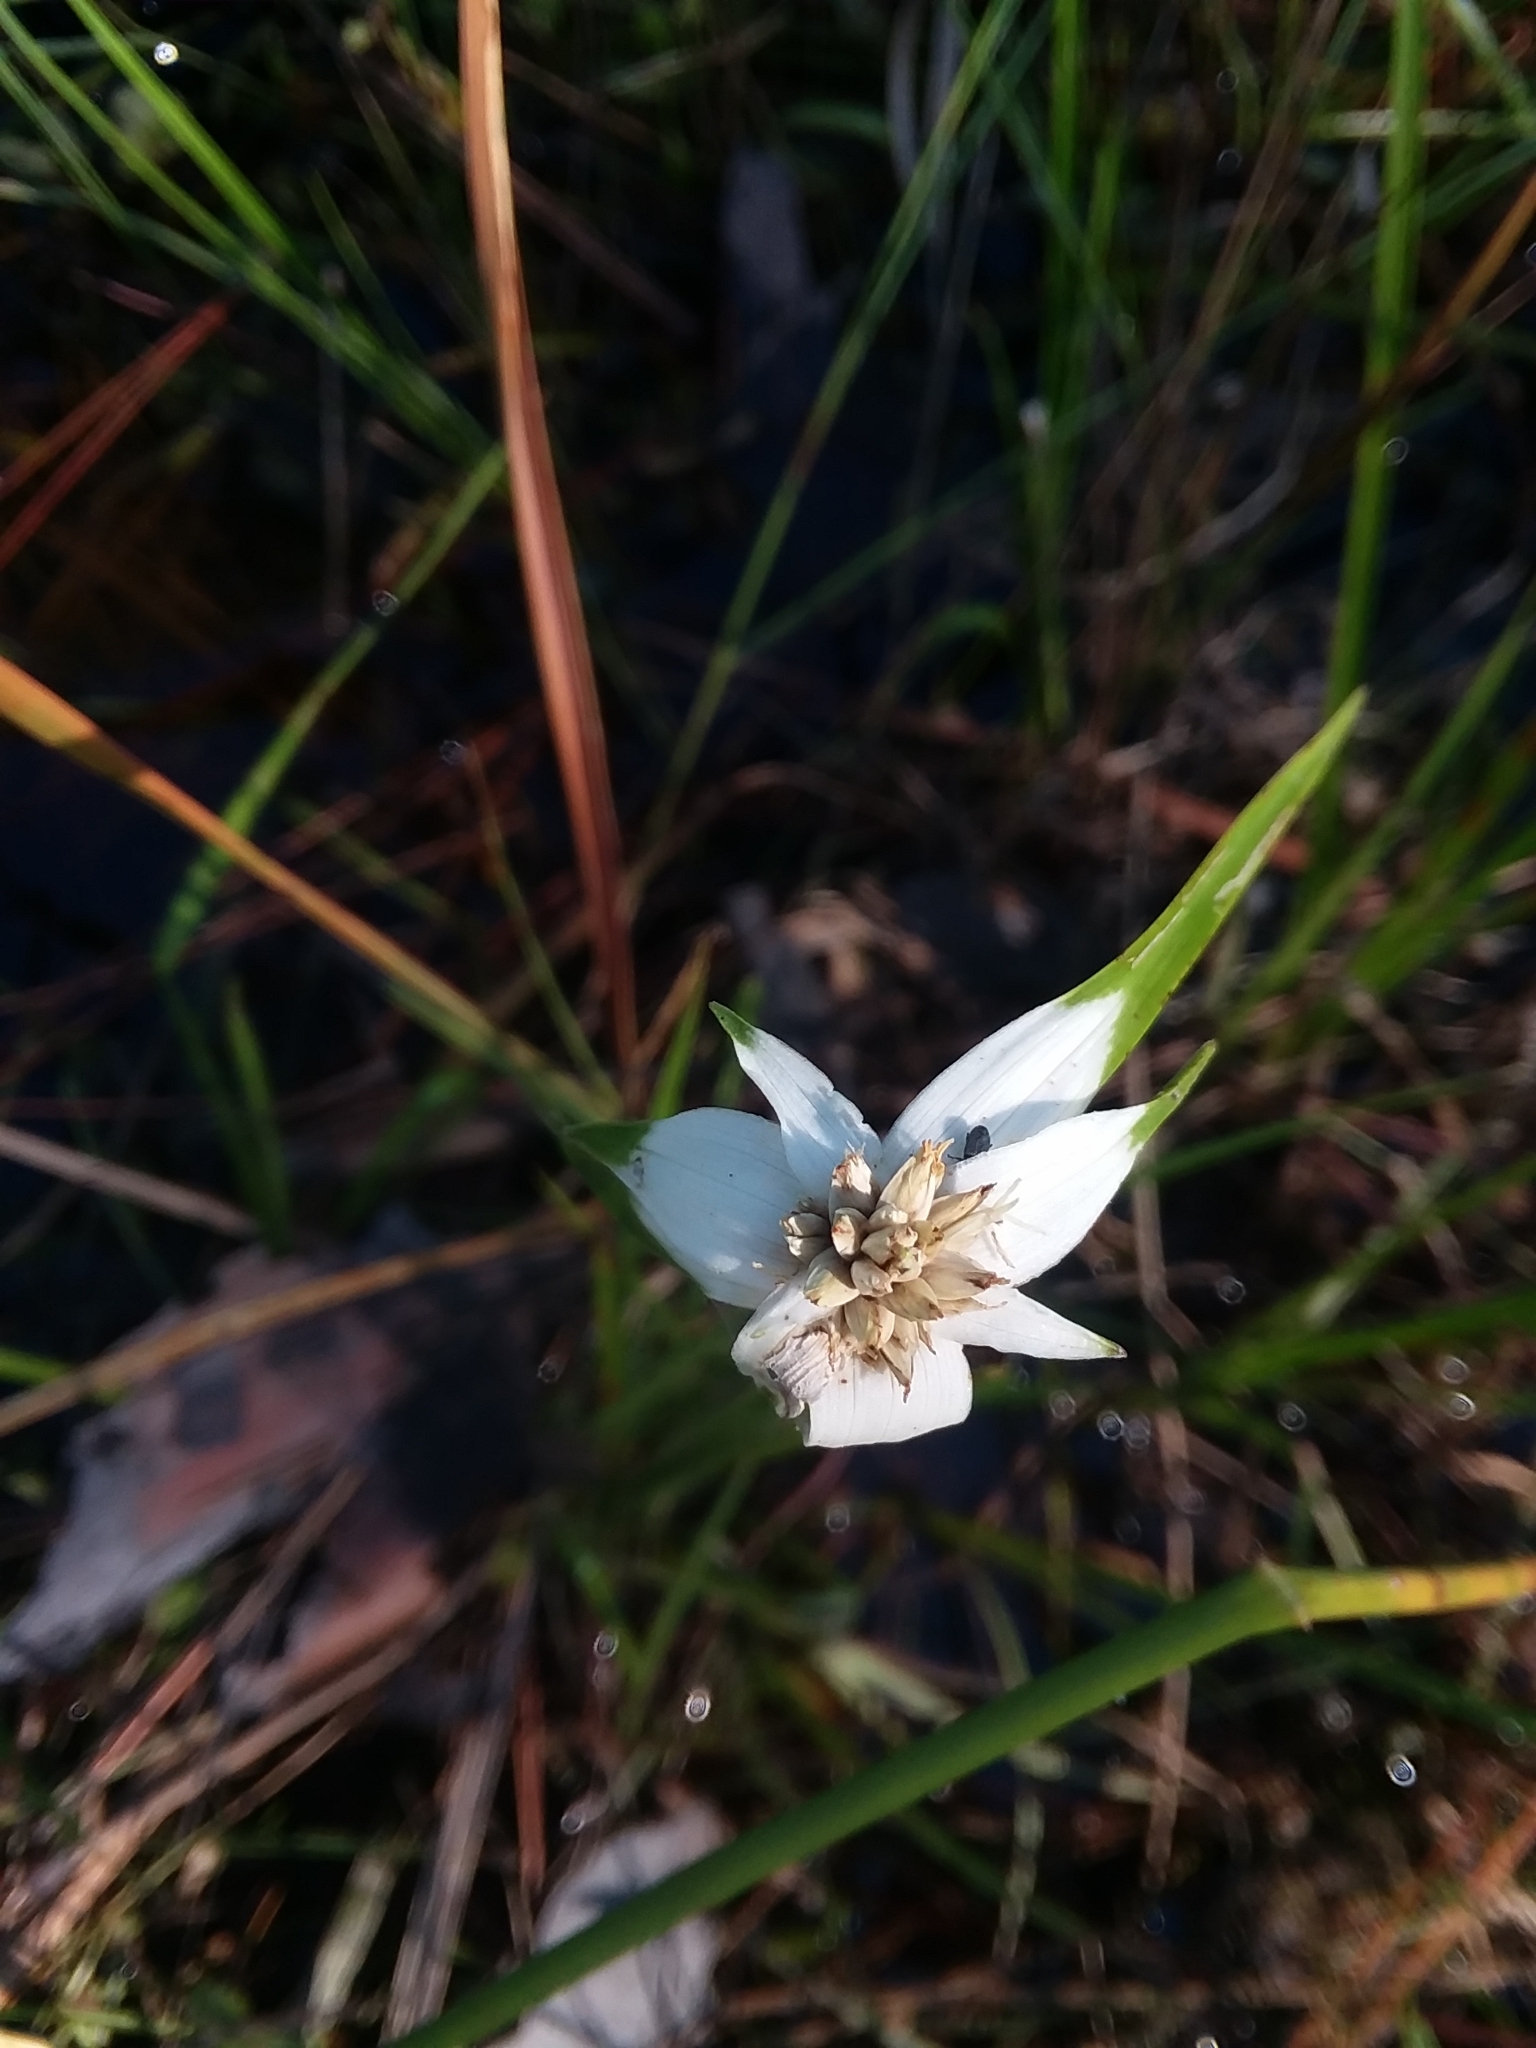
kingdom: Plantae
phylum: Tracheophyta
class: Liliopsida
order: Poales
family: Cyperaceae
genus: Rhynchospora
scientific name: Rhynchospora colorata
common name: Star sedge
